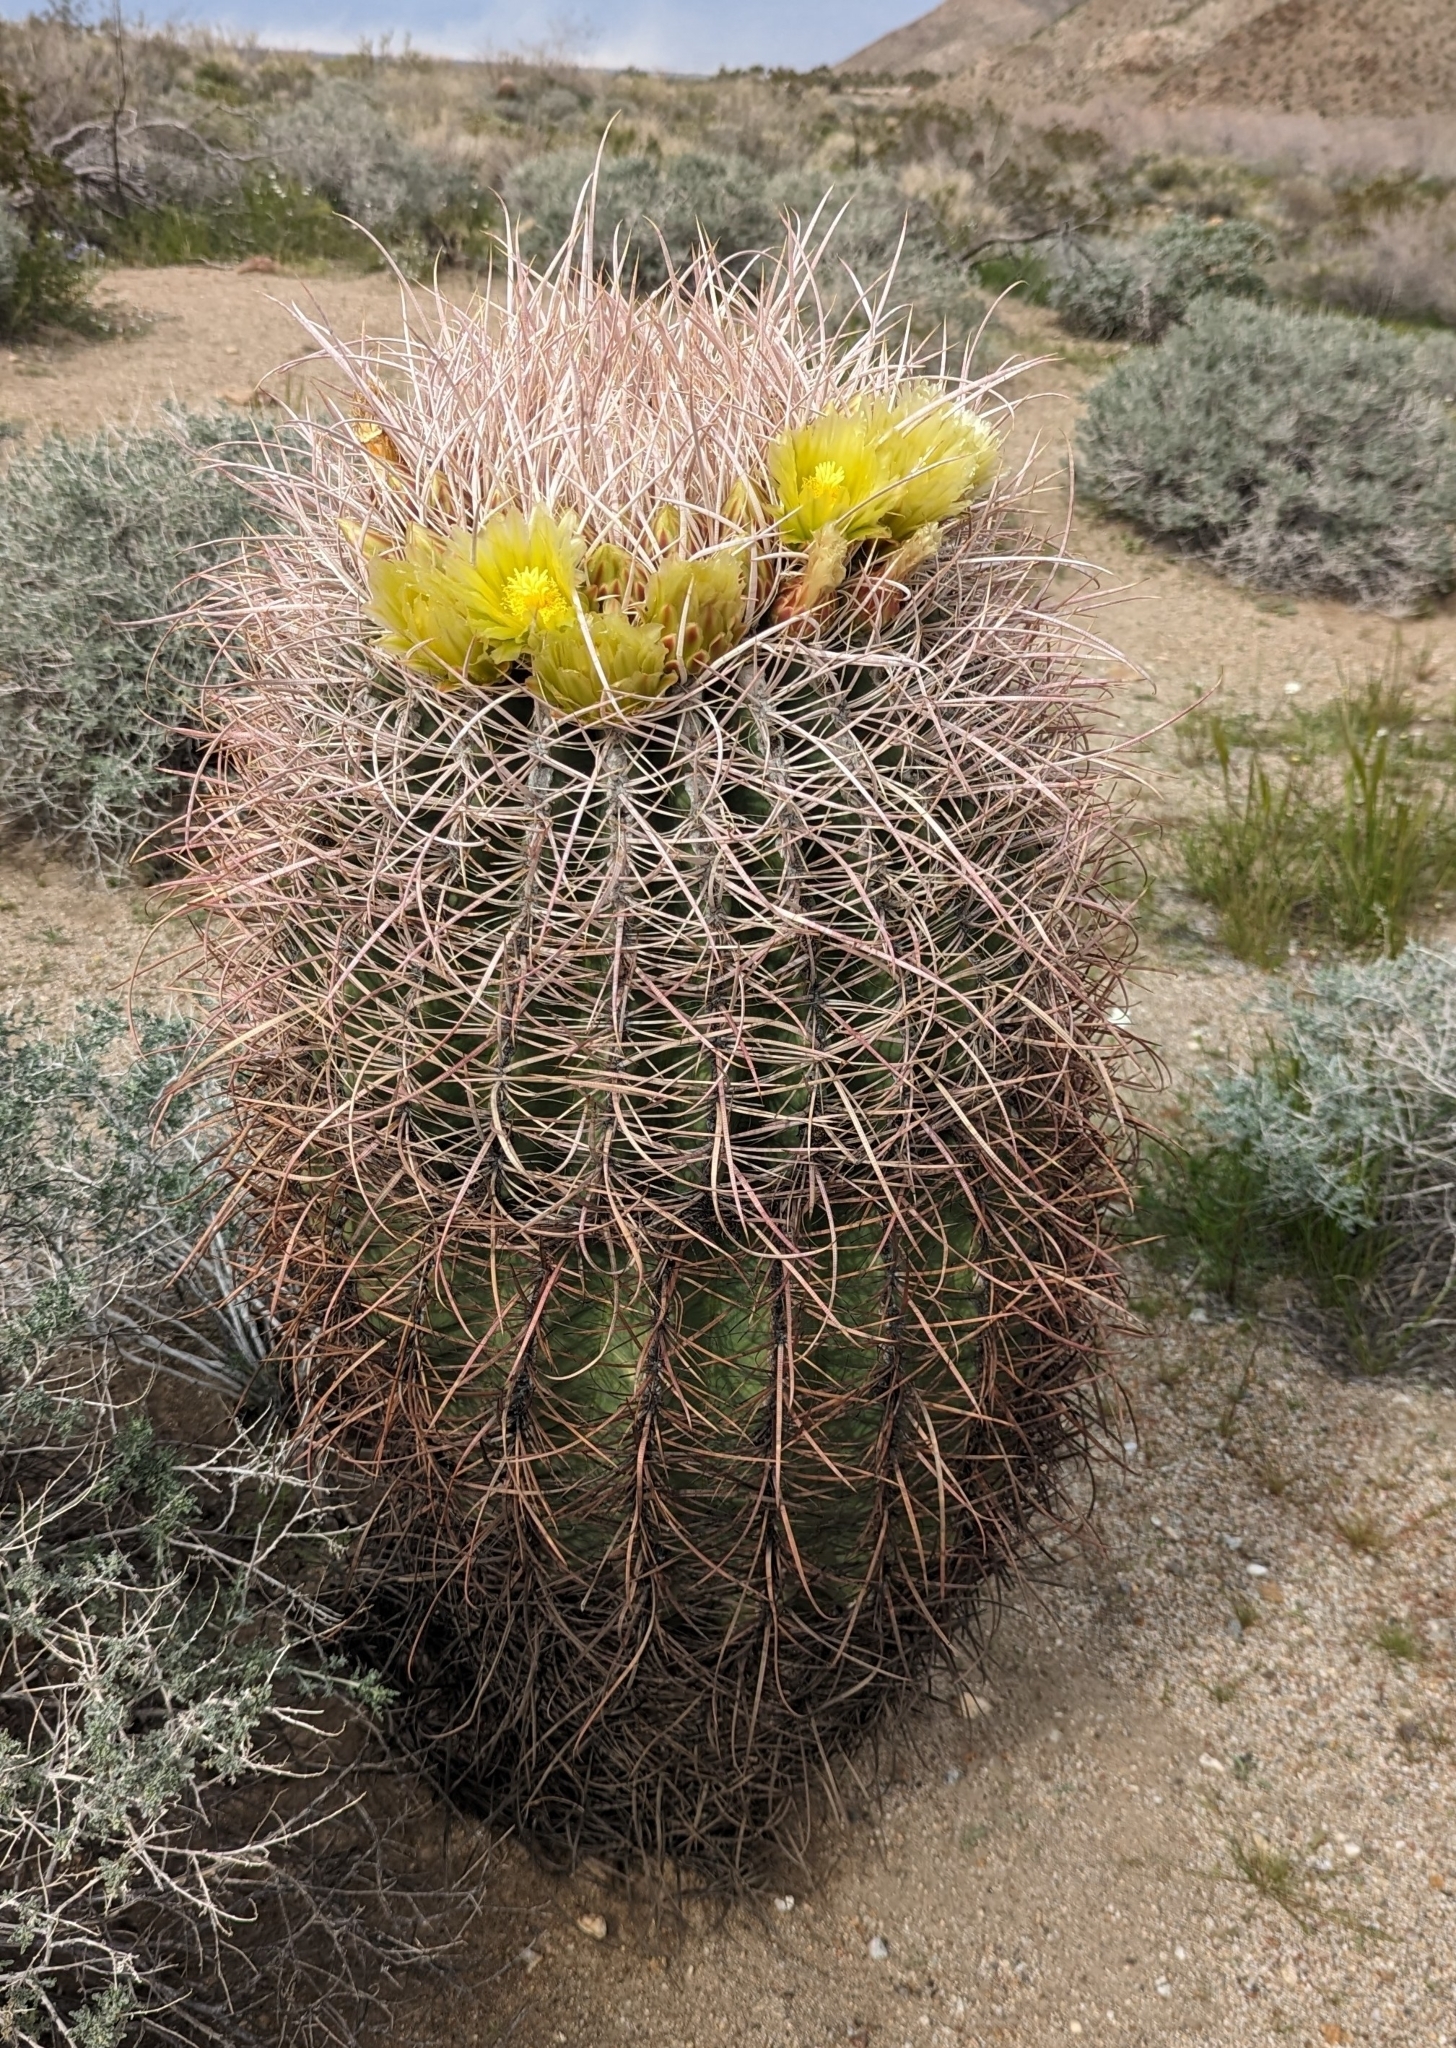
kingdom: Plantae
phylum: Tracheophyta
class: Magnoliopsida
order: Caryophyllales
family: Cactaceae
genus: Ferocactus
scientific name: Ferocactus cylindraceus
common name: California barrel cactus
